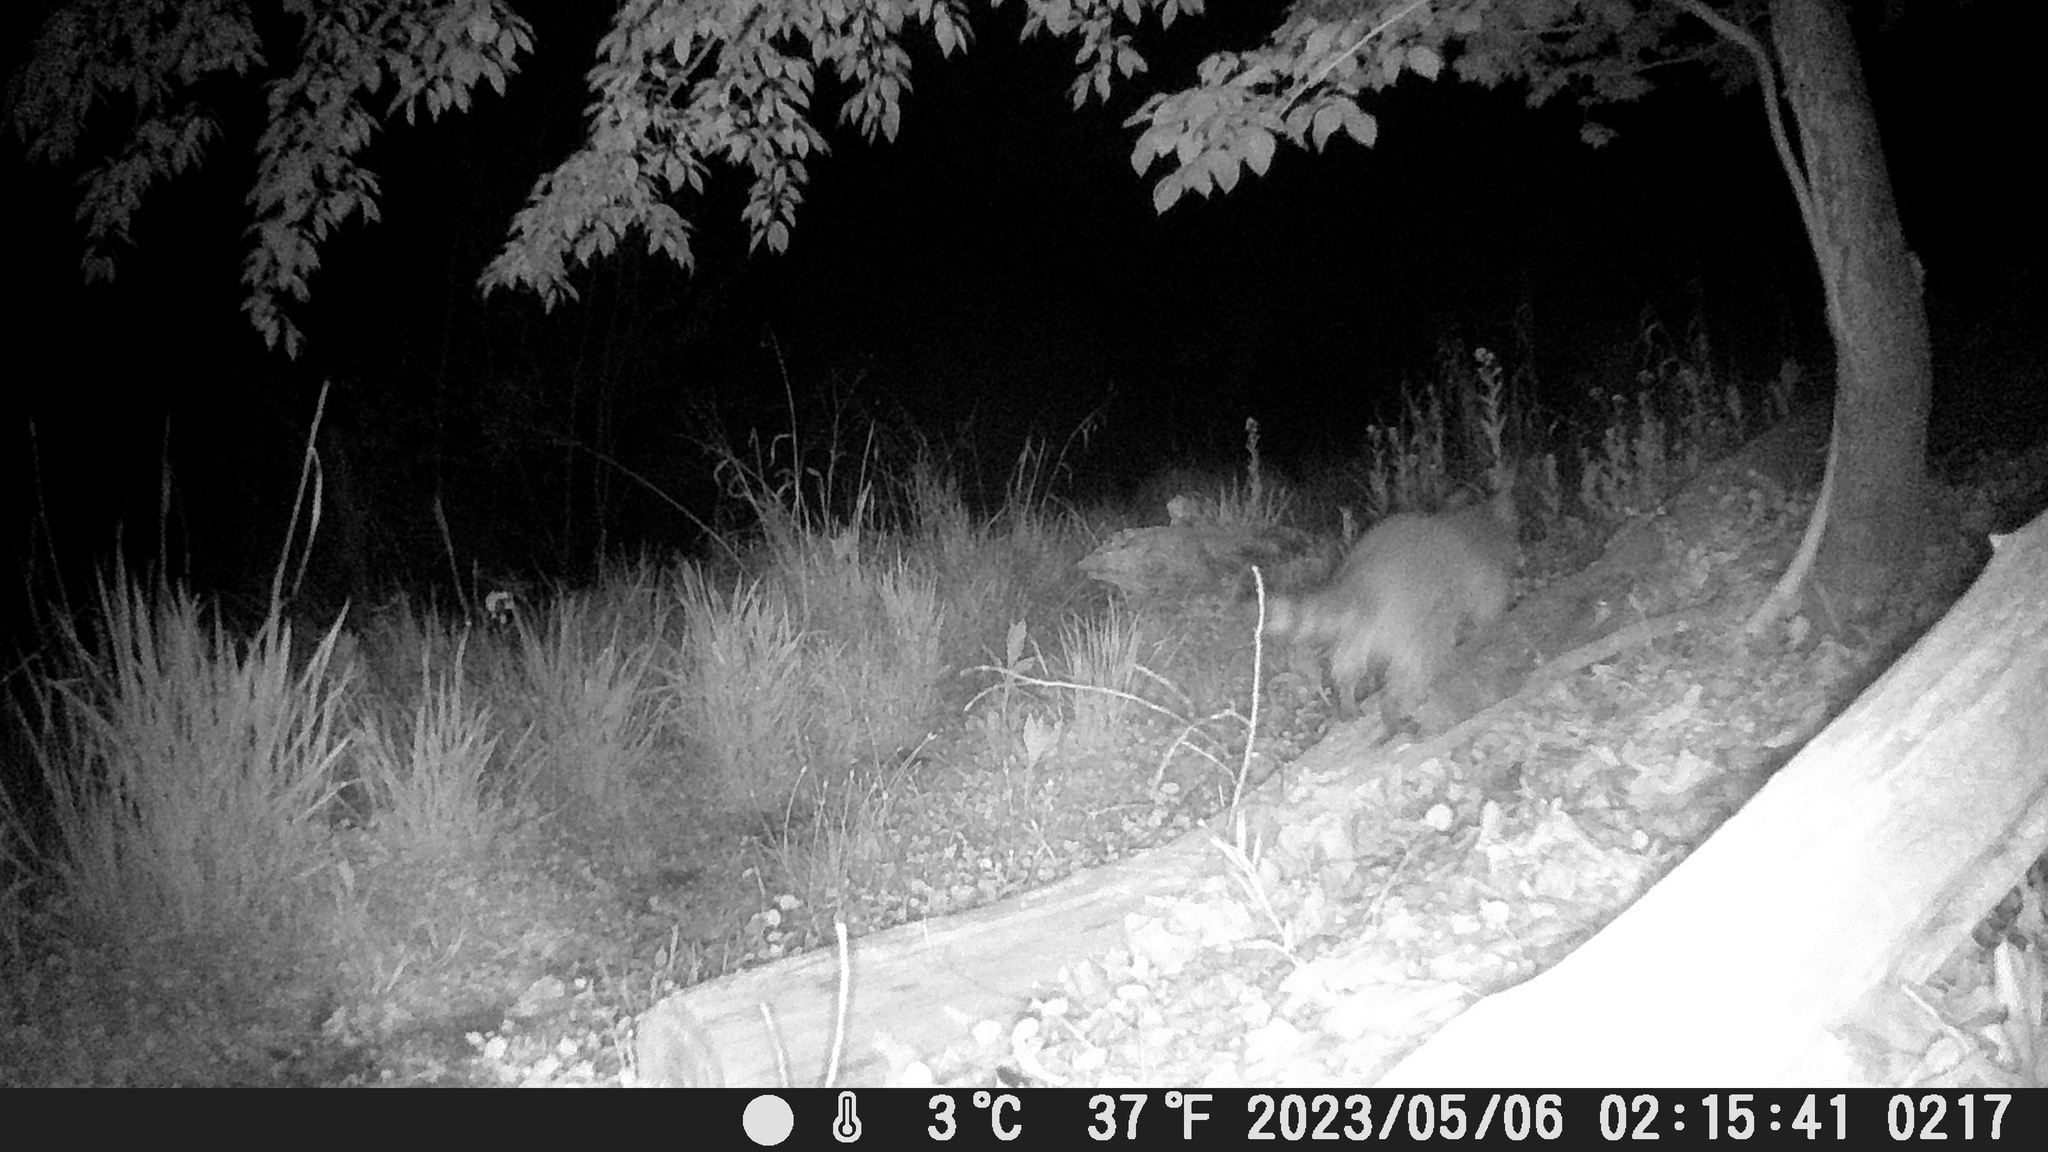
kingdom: Animalia
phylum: Chordata
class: Mammalia
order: Carnivora
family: Procyonidae
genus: Procyon
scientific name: Procyon lotor
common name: Raccoon
